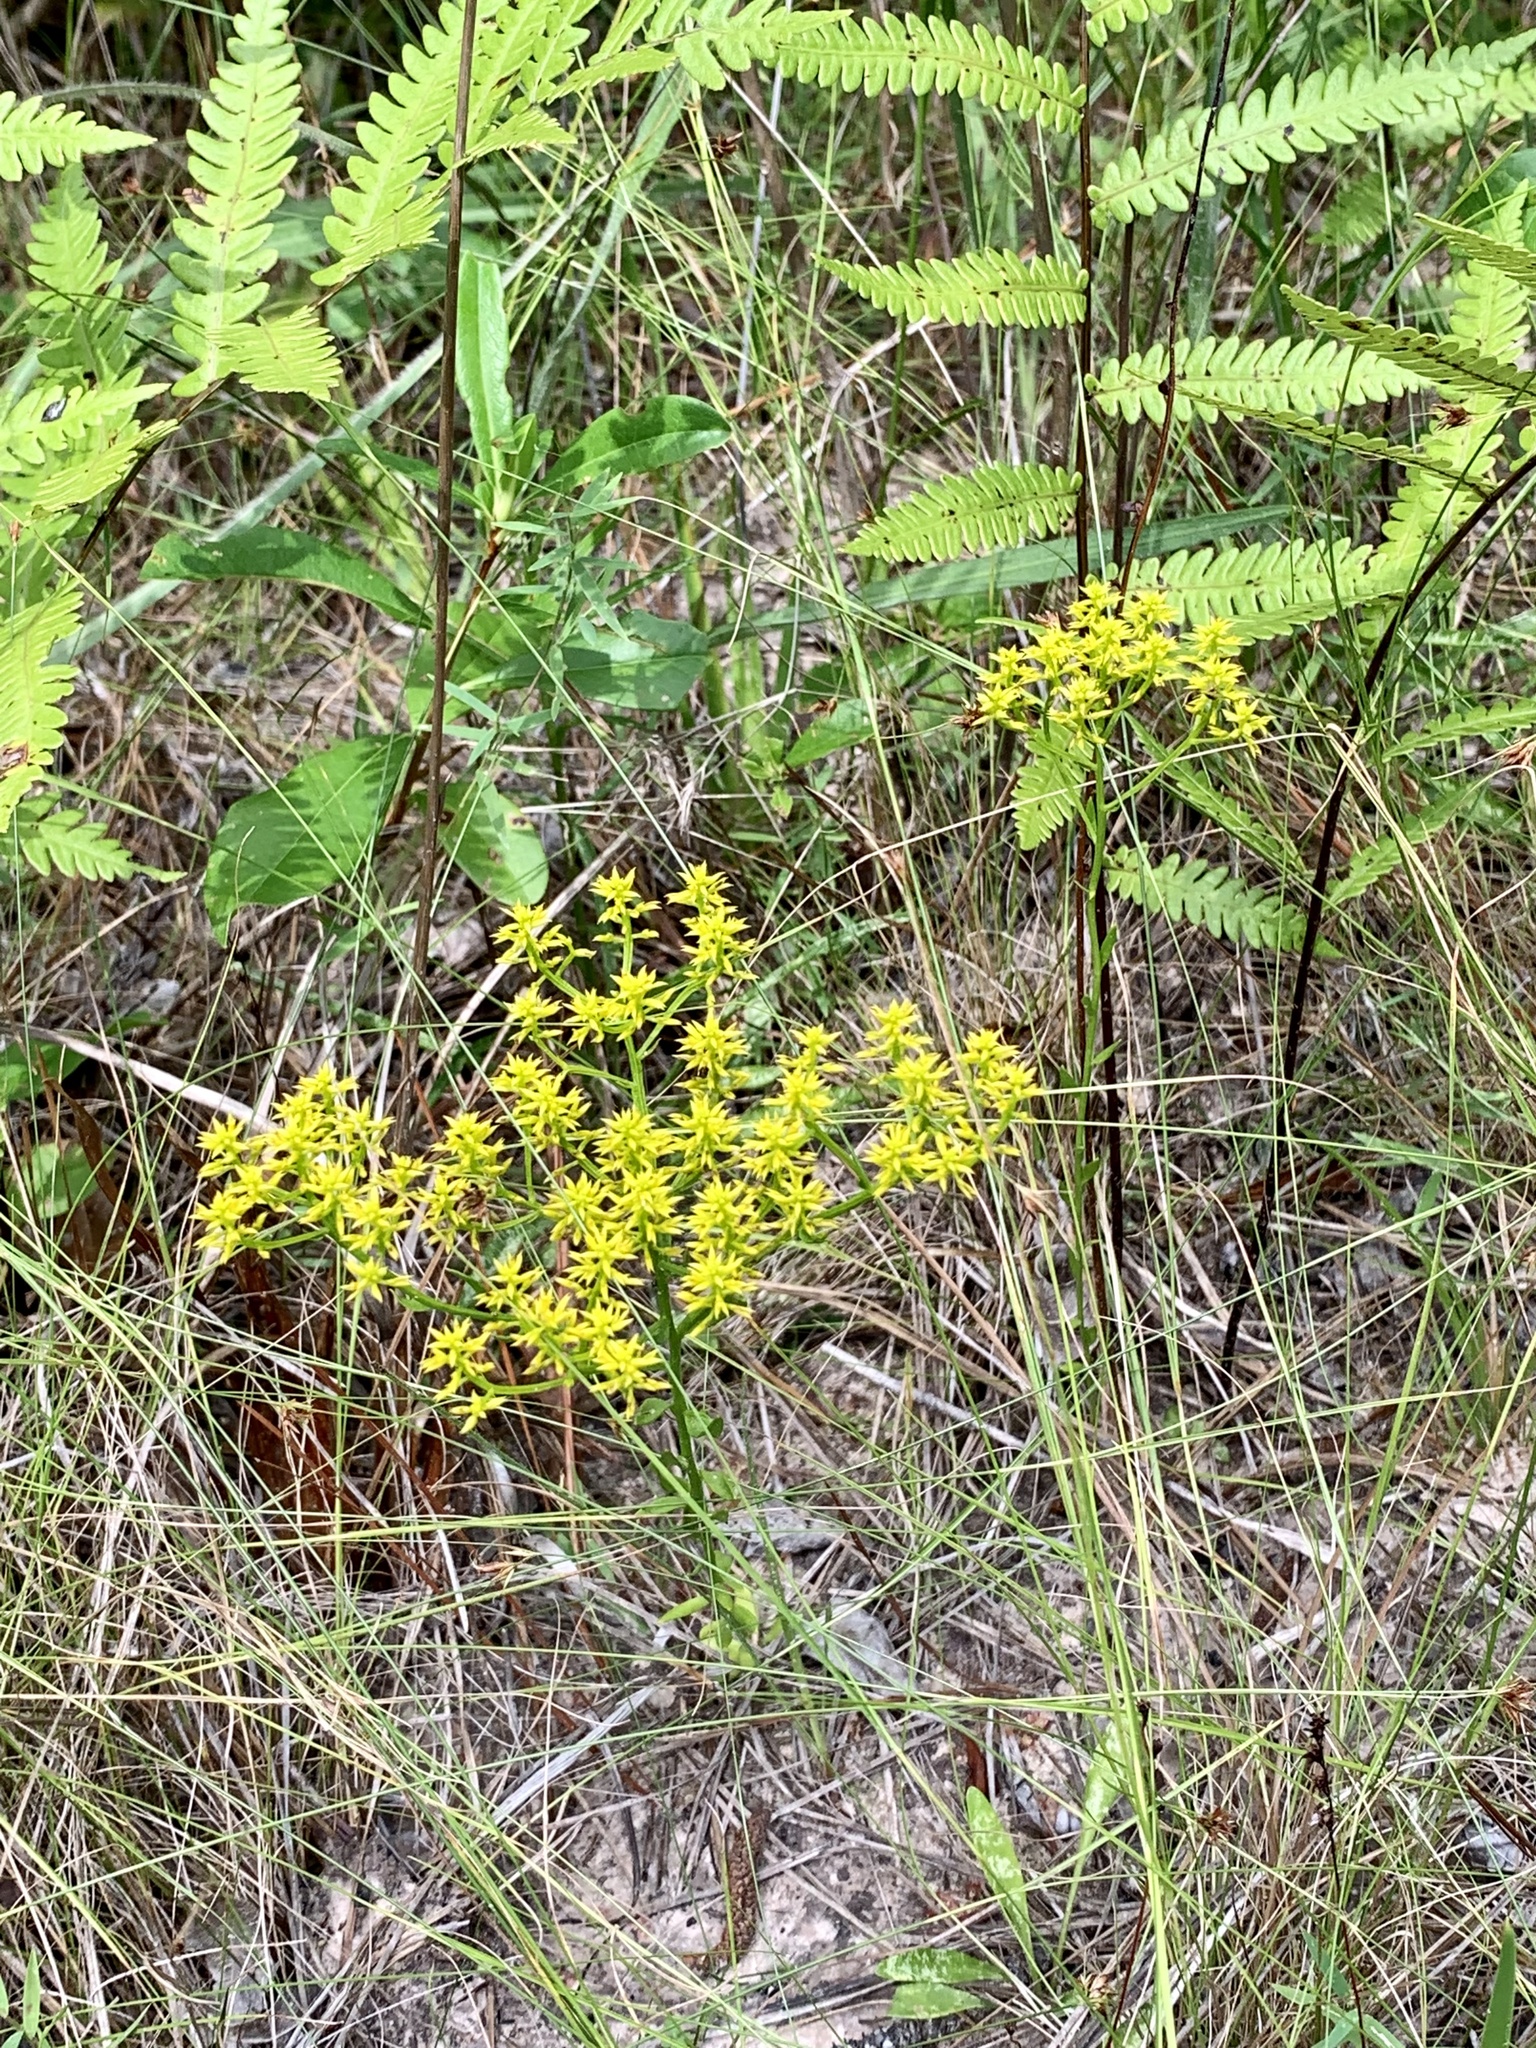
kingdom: Plantae
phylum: Tracheophyta
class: Magnoliopsida
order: Fabales
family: Polygalaceae
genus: Polygala
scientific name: Polygala ramosa
